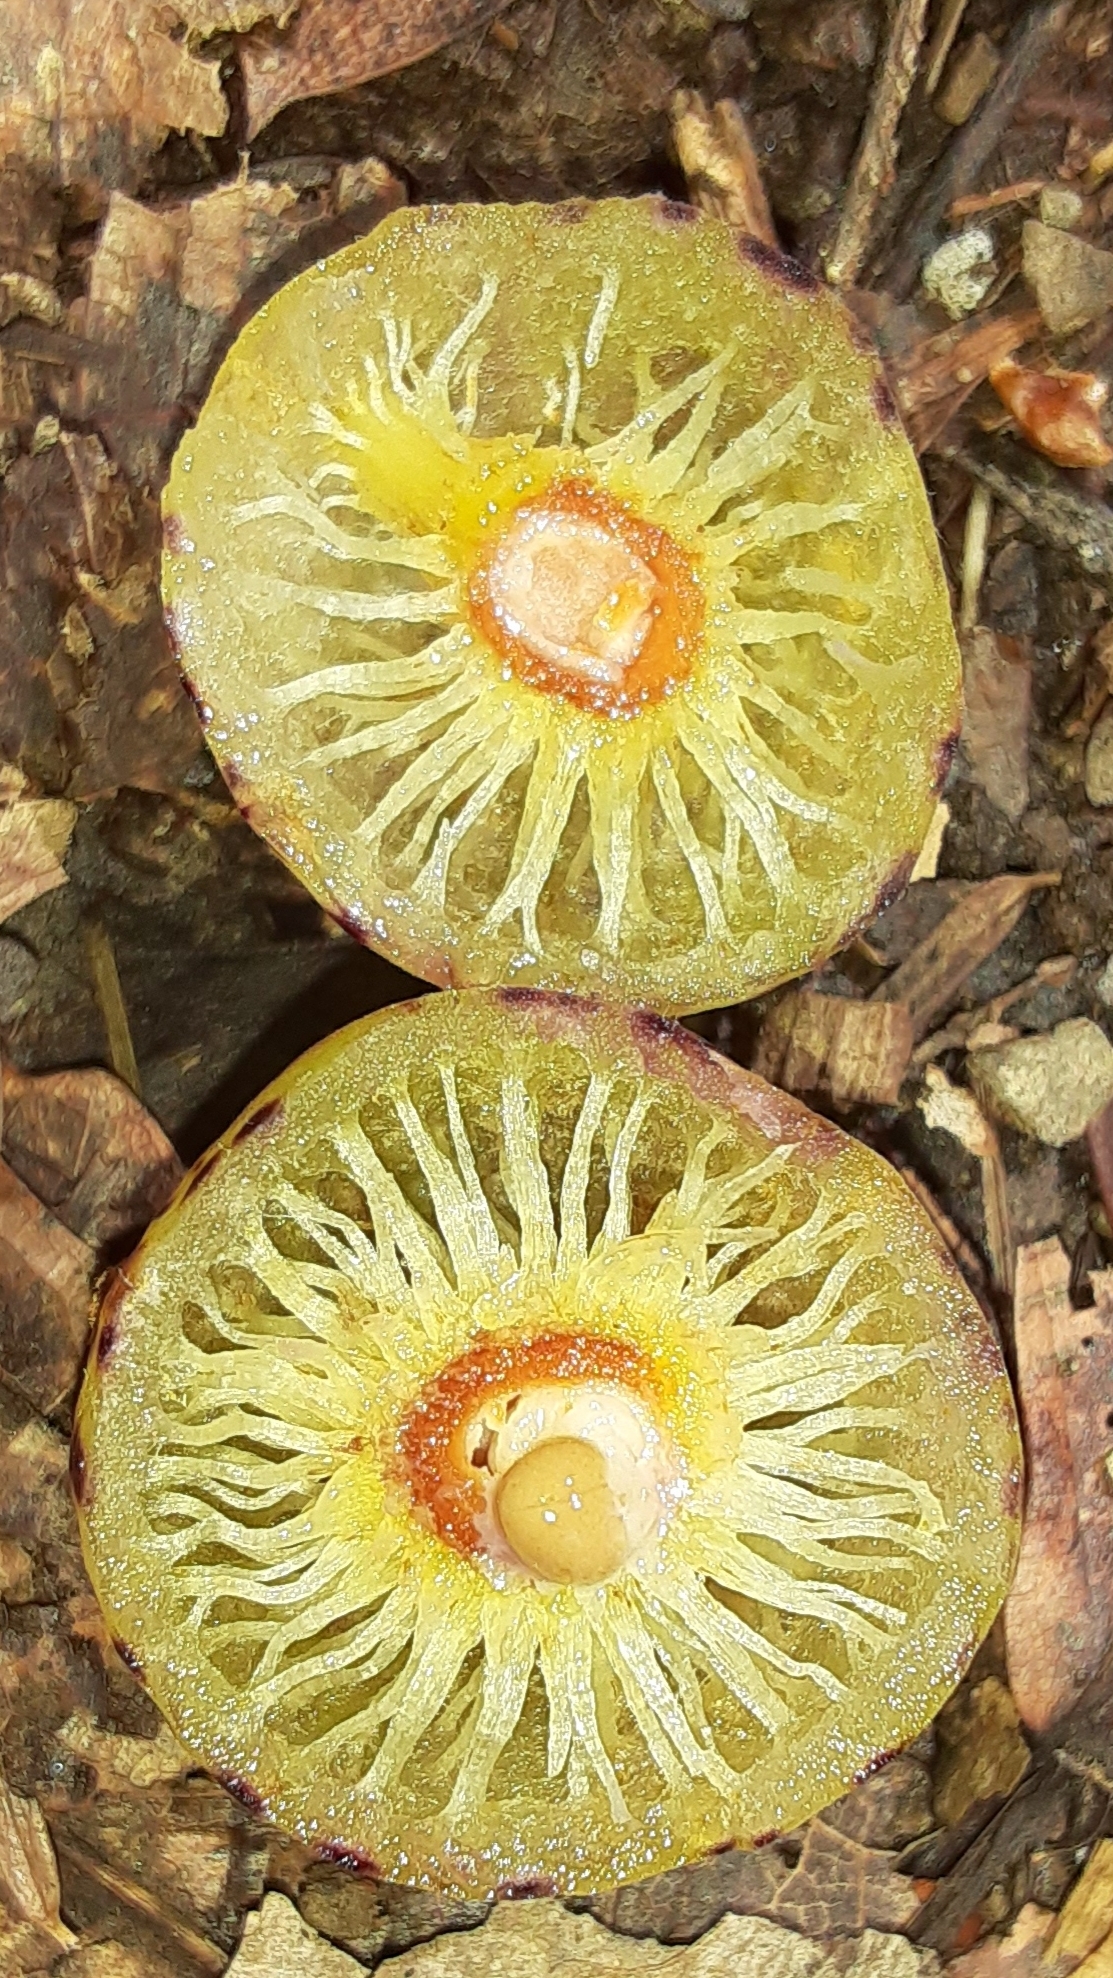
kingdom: Animalia
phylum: Arthropoda
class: Insecta
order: Hymenoptera
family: Cynipidae
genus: Amphibolips
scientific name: Amphibolips
